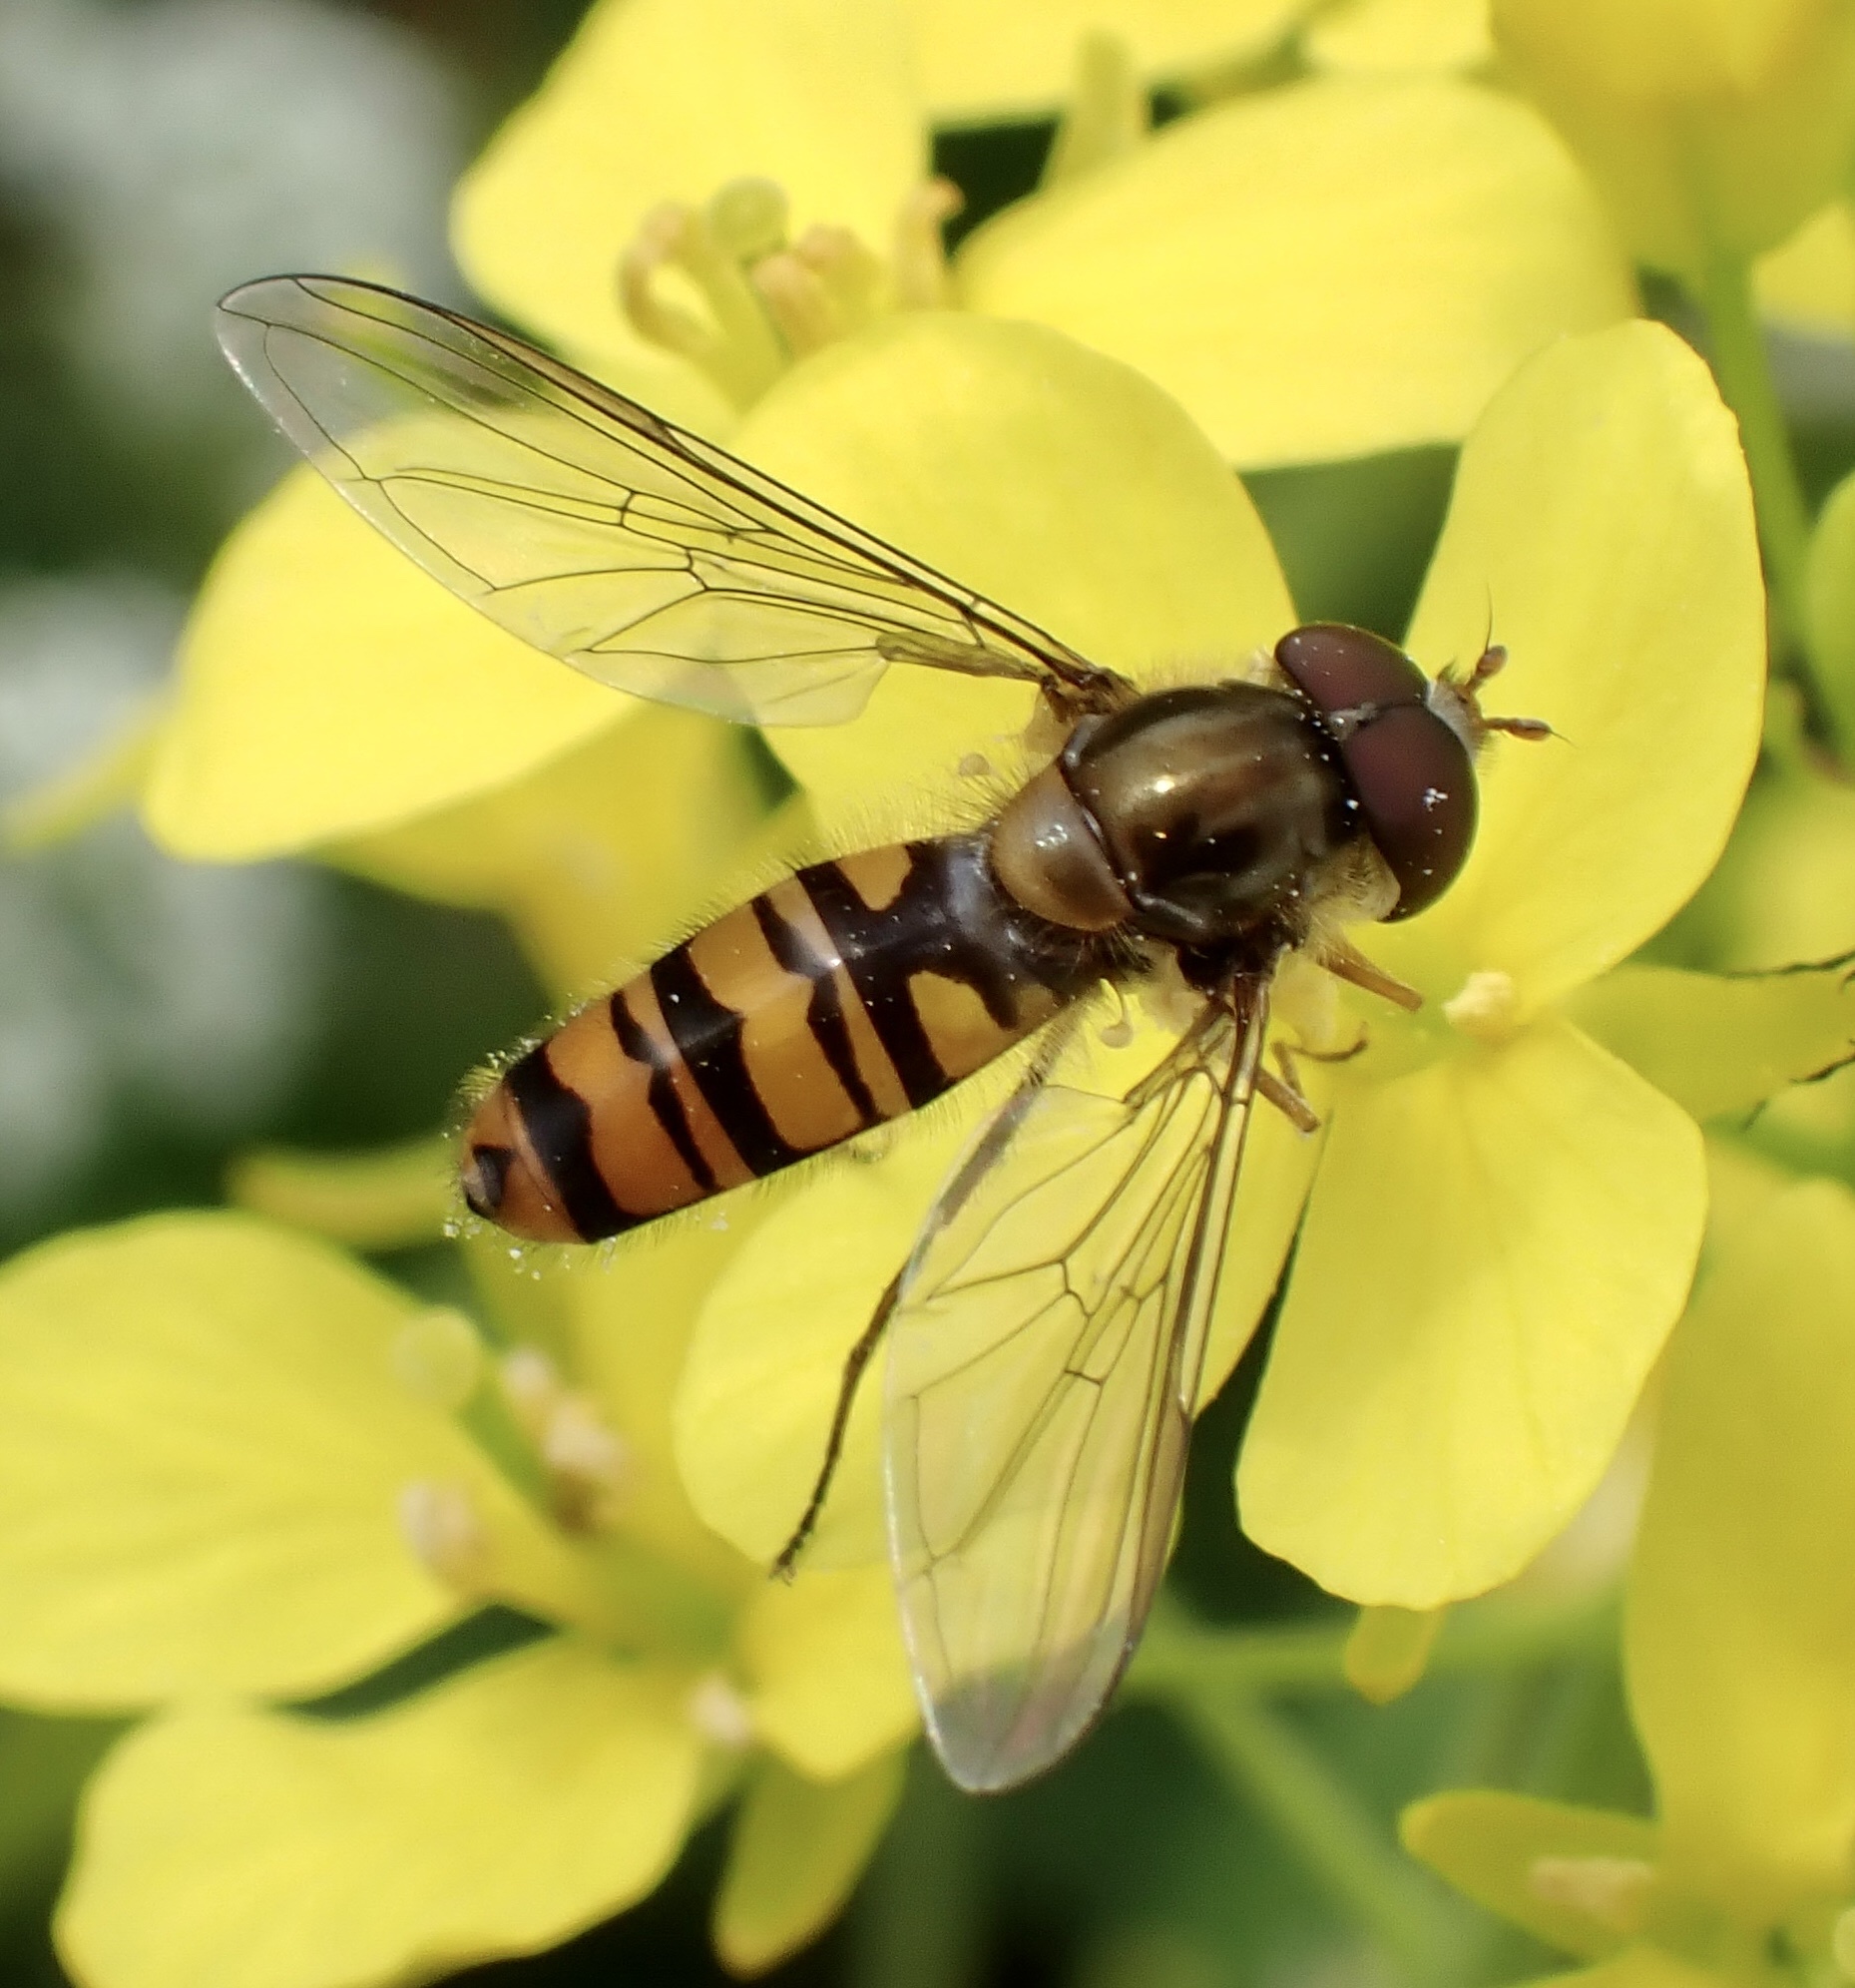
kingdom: Animalia
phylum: Arthropoda
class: Insecta
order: Diptera
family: Syrphidae
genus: Episyrphus
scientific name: Episyrphus balteatus
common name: Marmalade hoverfly
